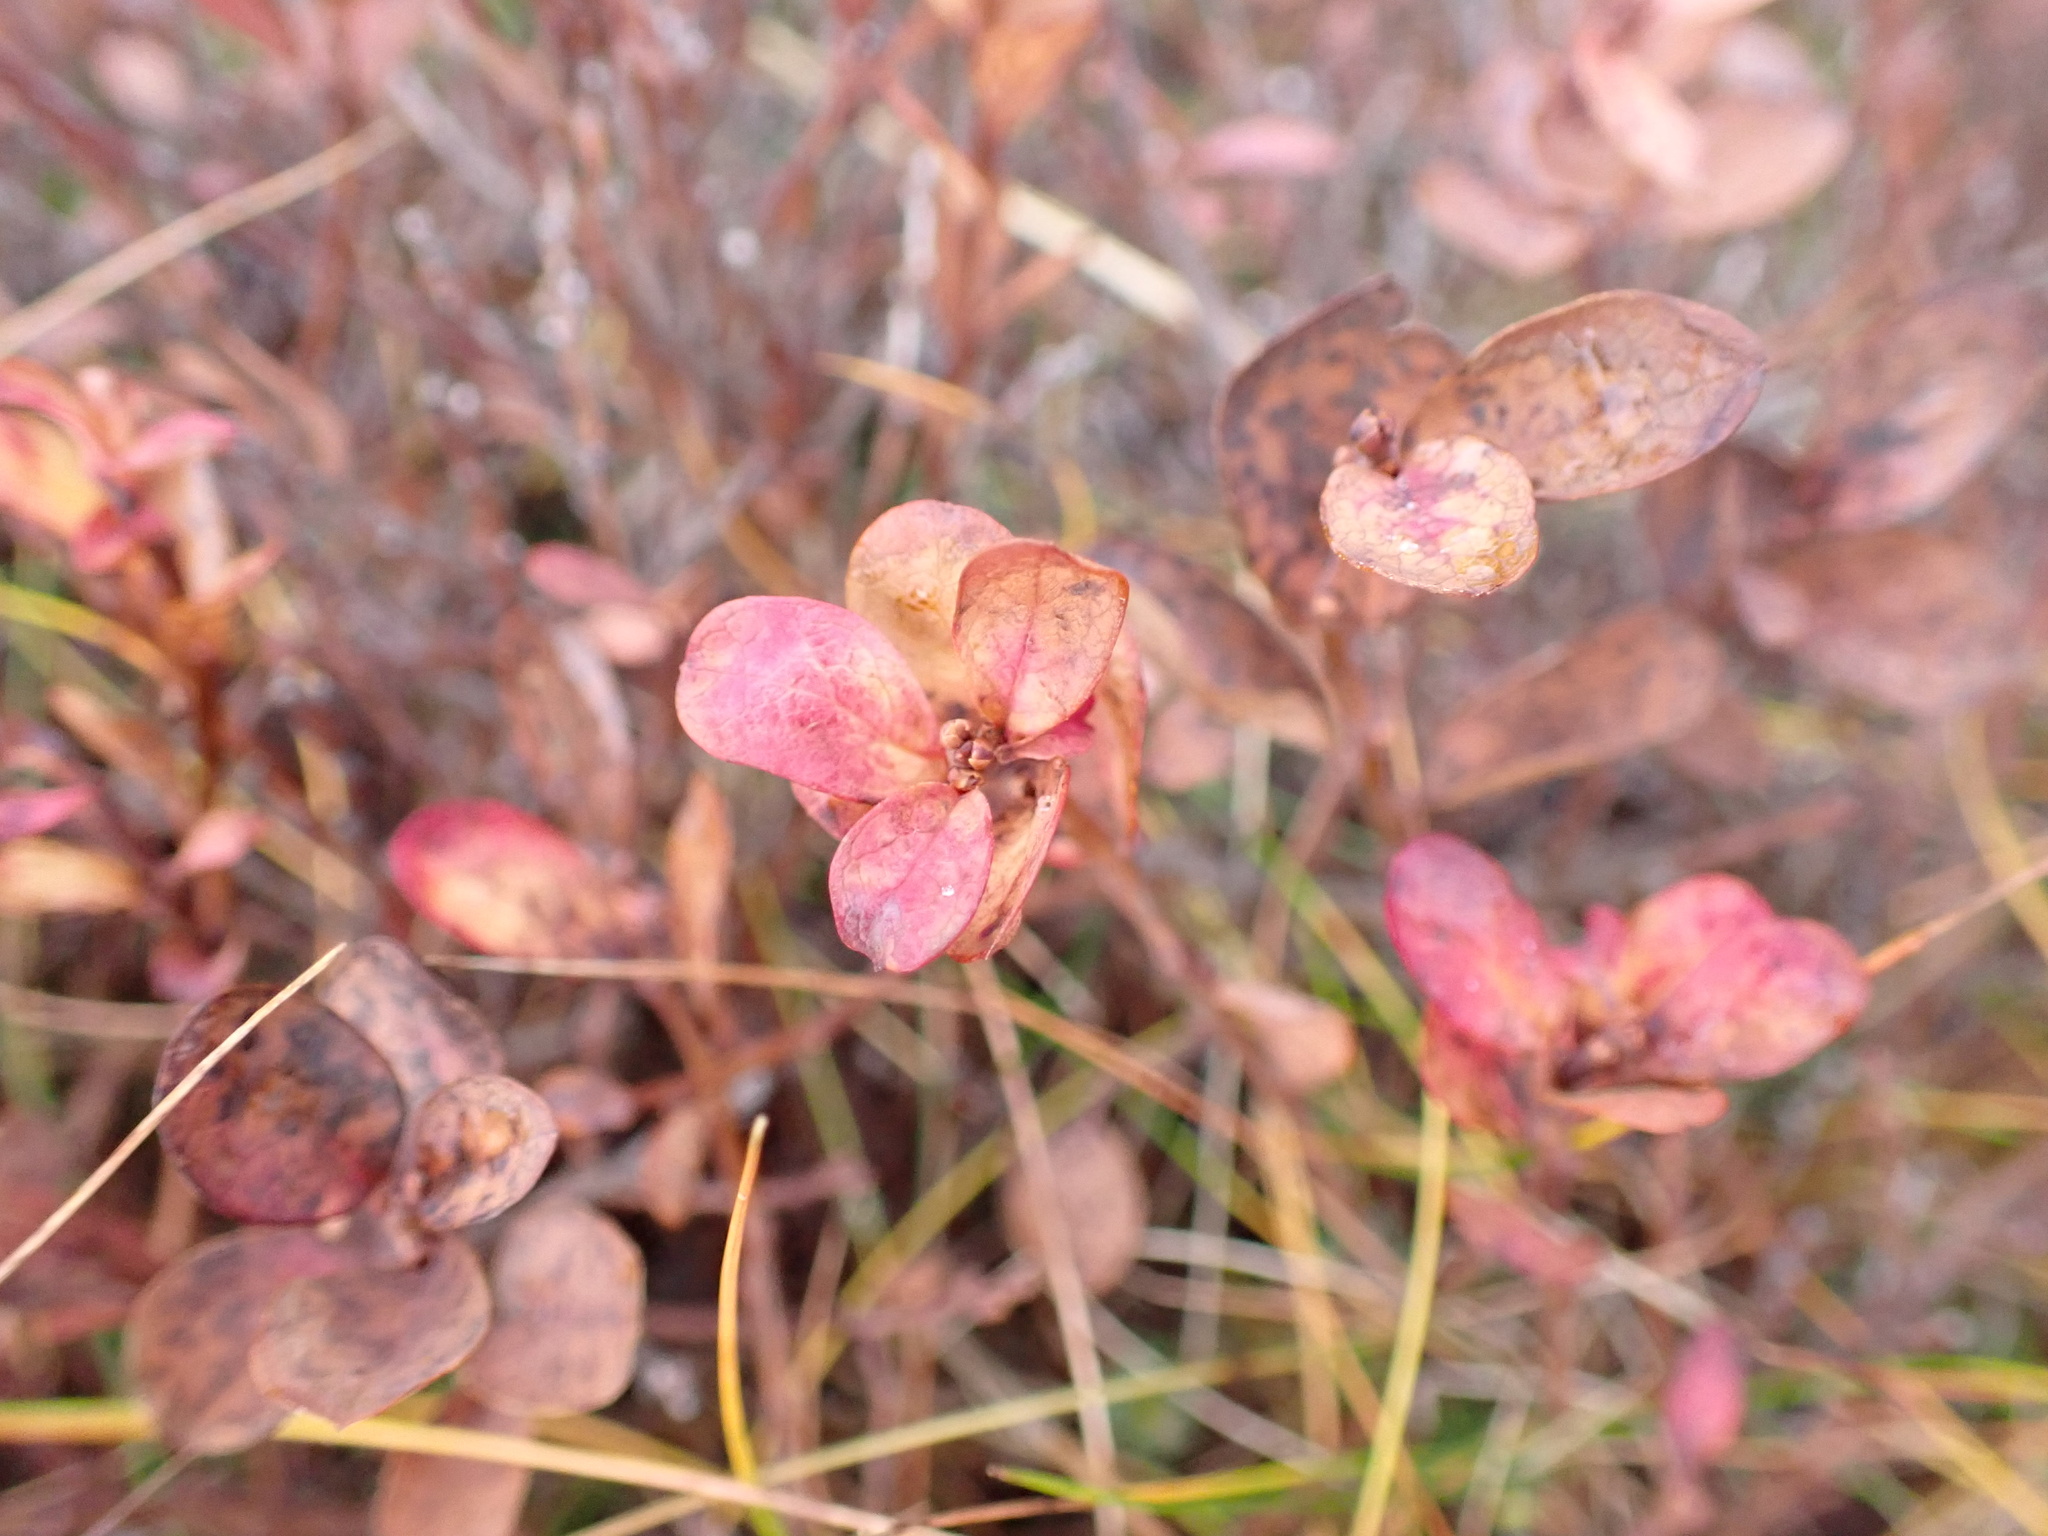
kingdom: Plantae
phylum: Tracheophyta
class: Magnoliopsida
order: Ericales
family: Ericaceae
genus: Vaccinium
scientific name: Vaccinium uliginosum
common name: Bog bilberry
